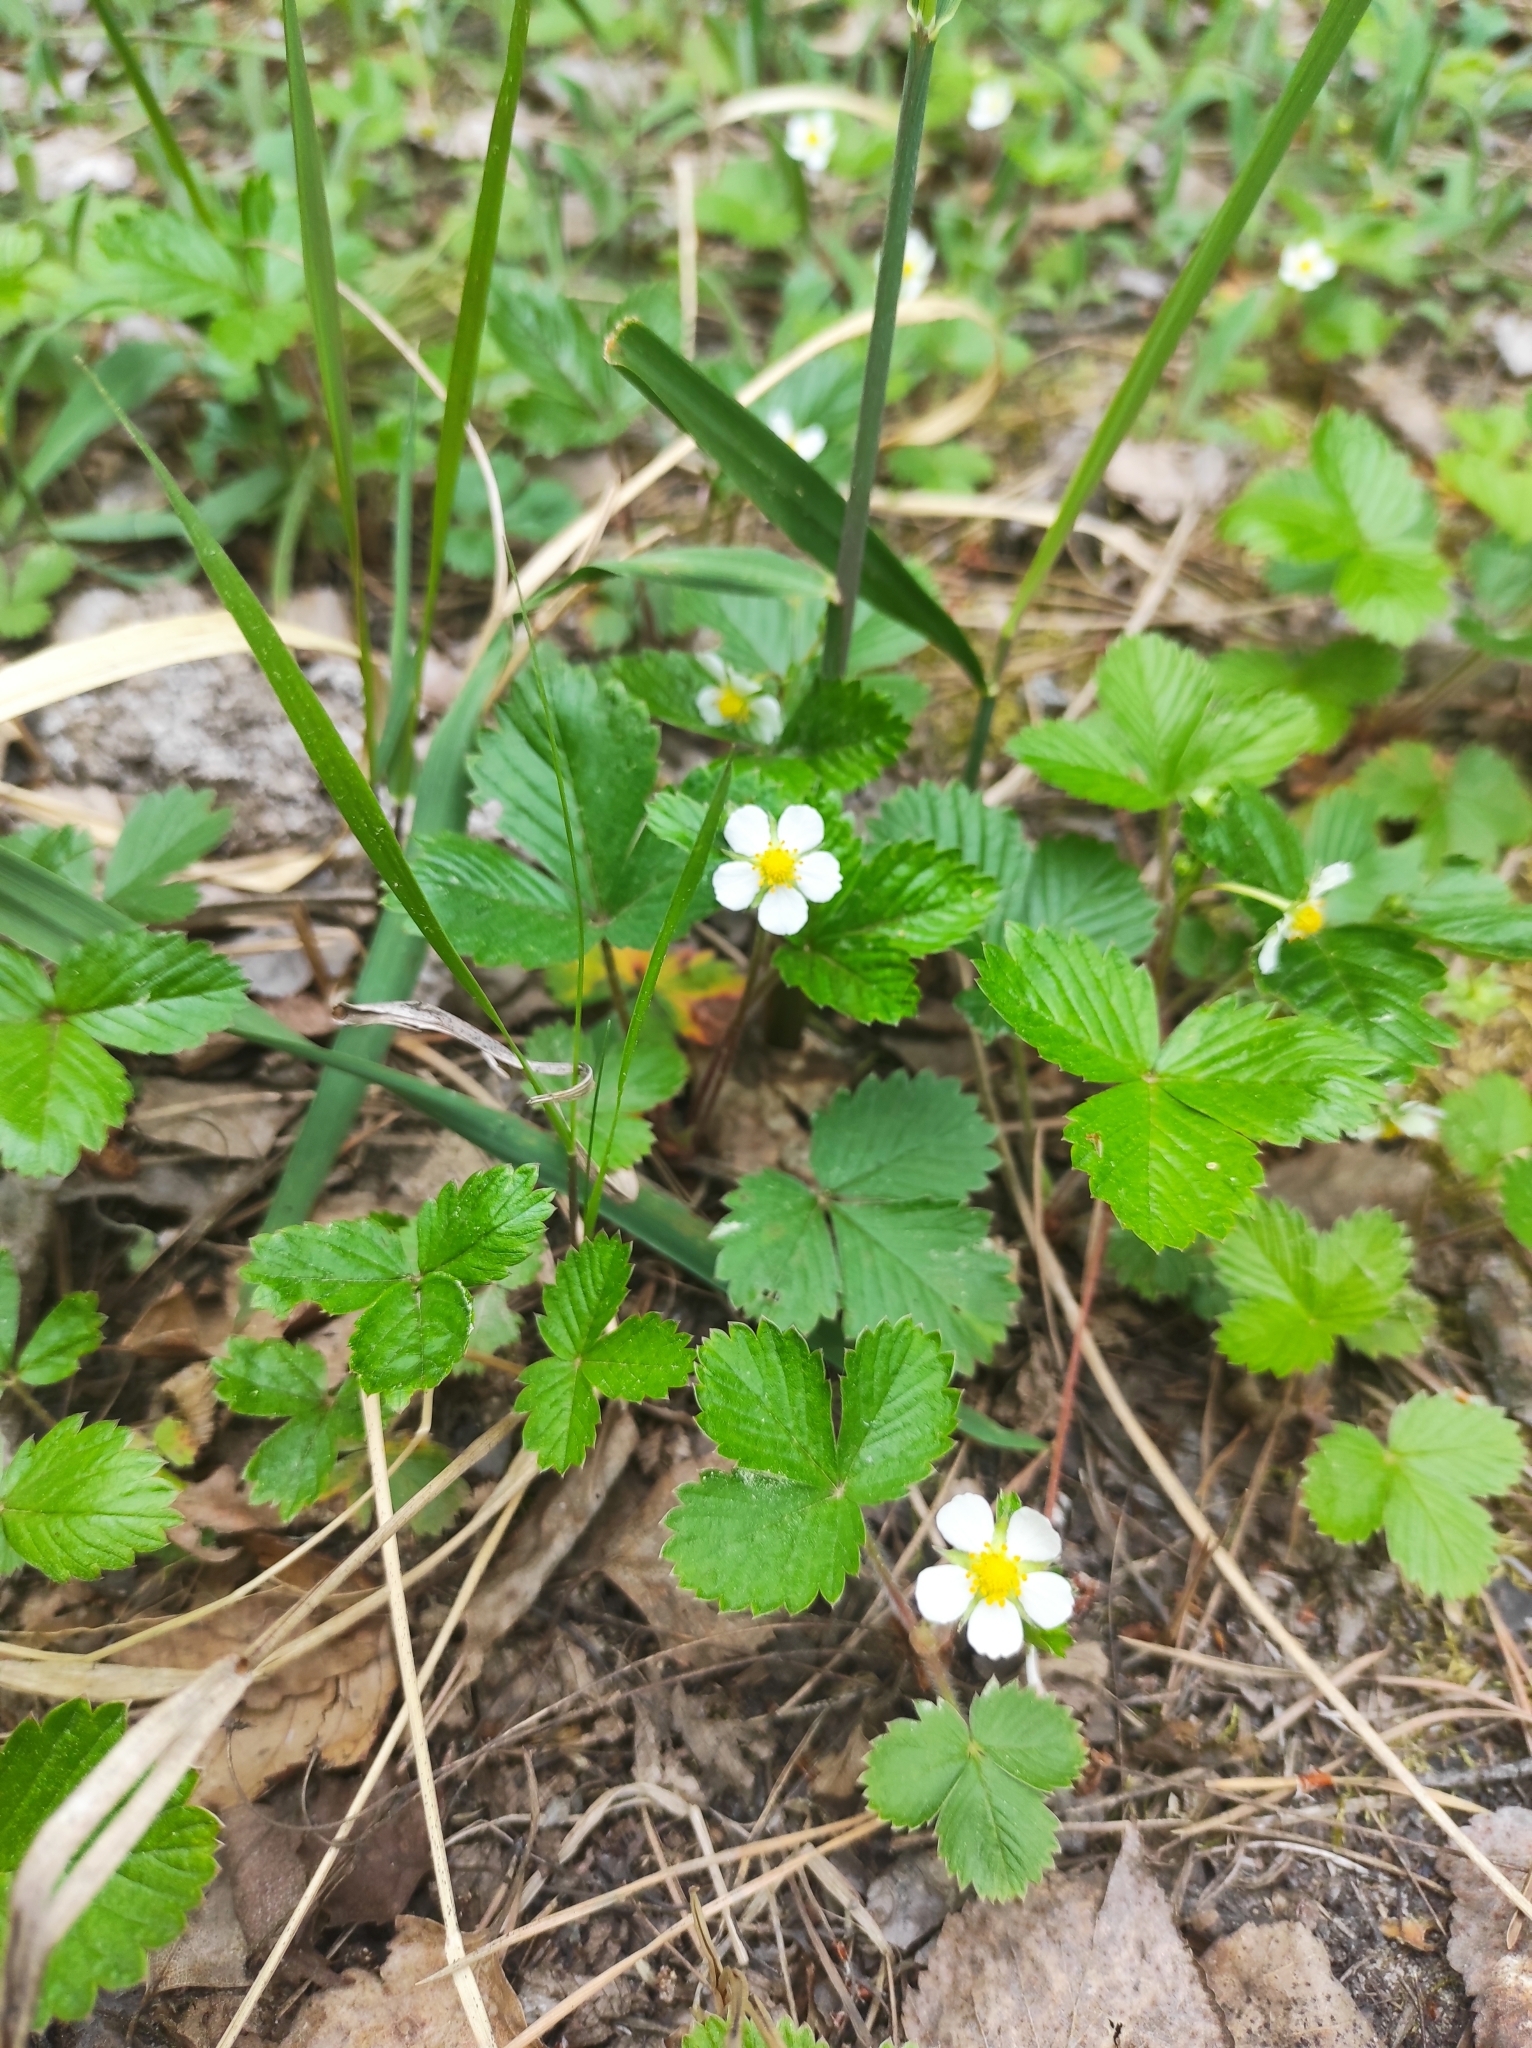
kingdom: Plantae
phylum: Tracheophyta
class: Magnoliopsida
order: Rosales
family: Rosaceae
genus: Fragaria
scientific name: Fragaria vesca
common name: Wild strawberry
